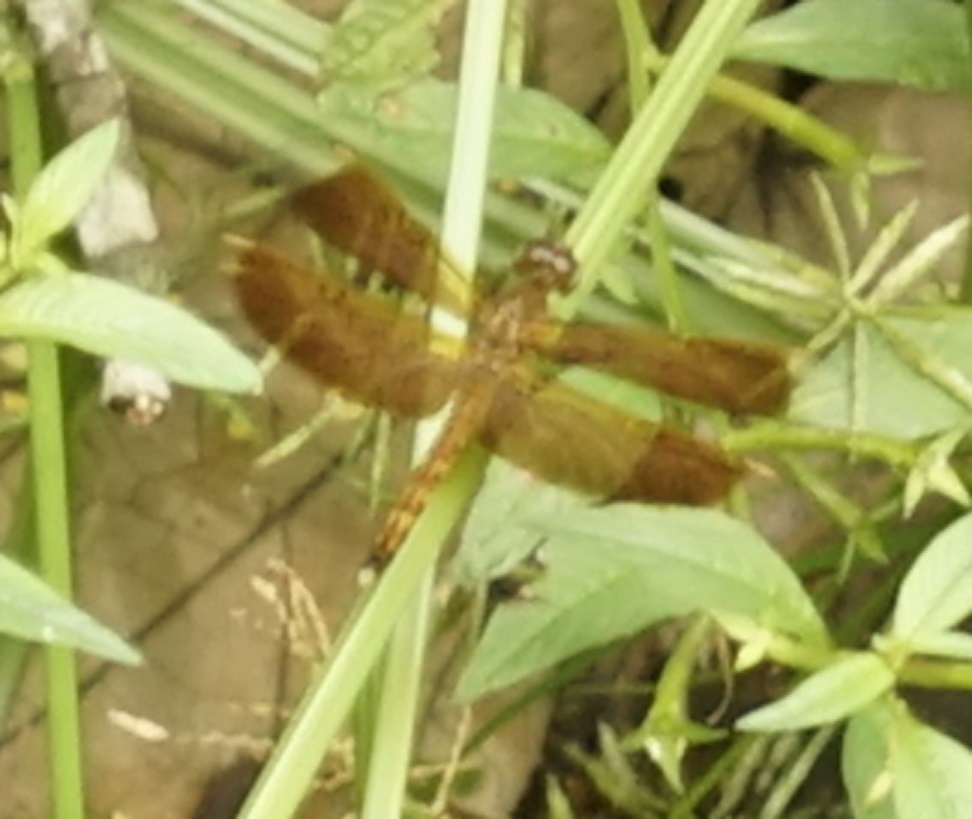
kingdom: Animalia
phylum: Arthropoda
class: Insecta
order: Odonata
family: Libellulidae
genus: Neurothemis
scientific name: Neurothemis fluctuans
